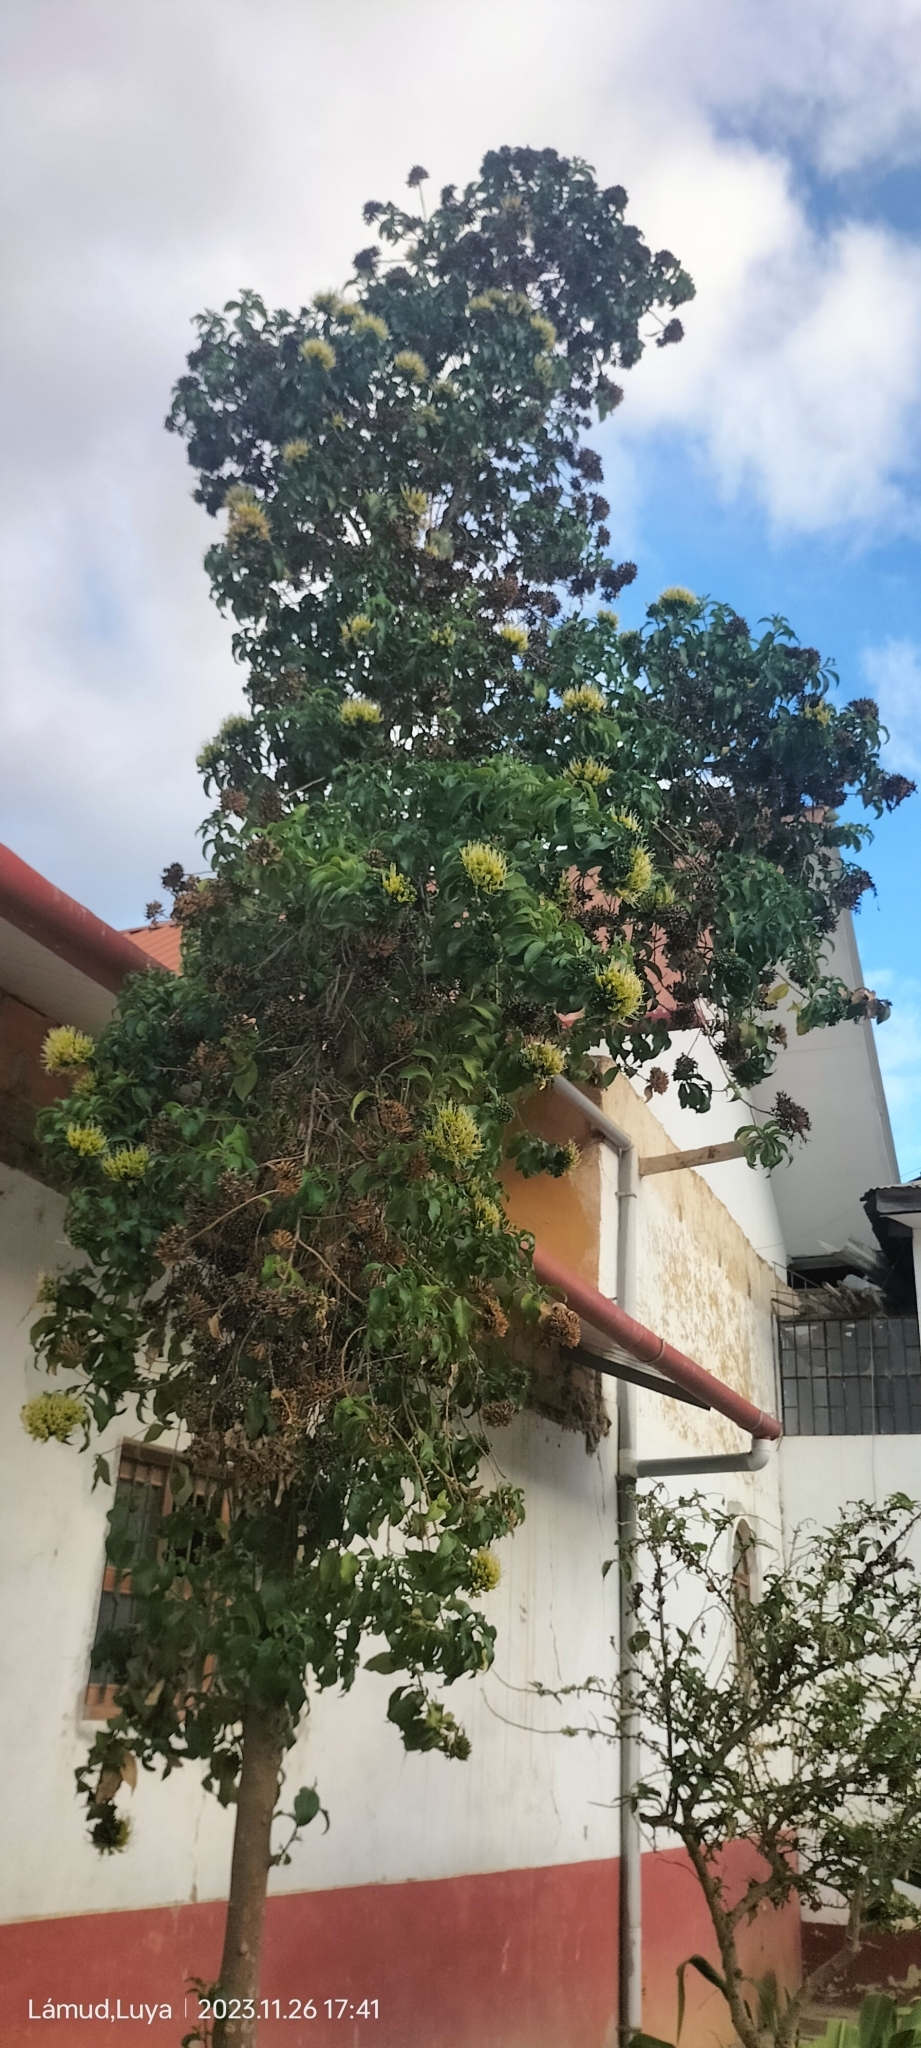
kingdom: Plantae
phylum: Tracheophyta
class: Magnoliopsida
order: Ericales
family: Polemoniaceae
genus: Cantua
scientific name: Cantua pyrifolia
